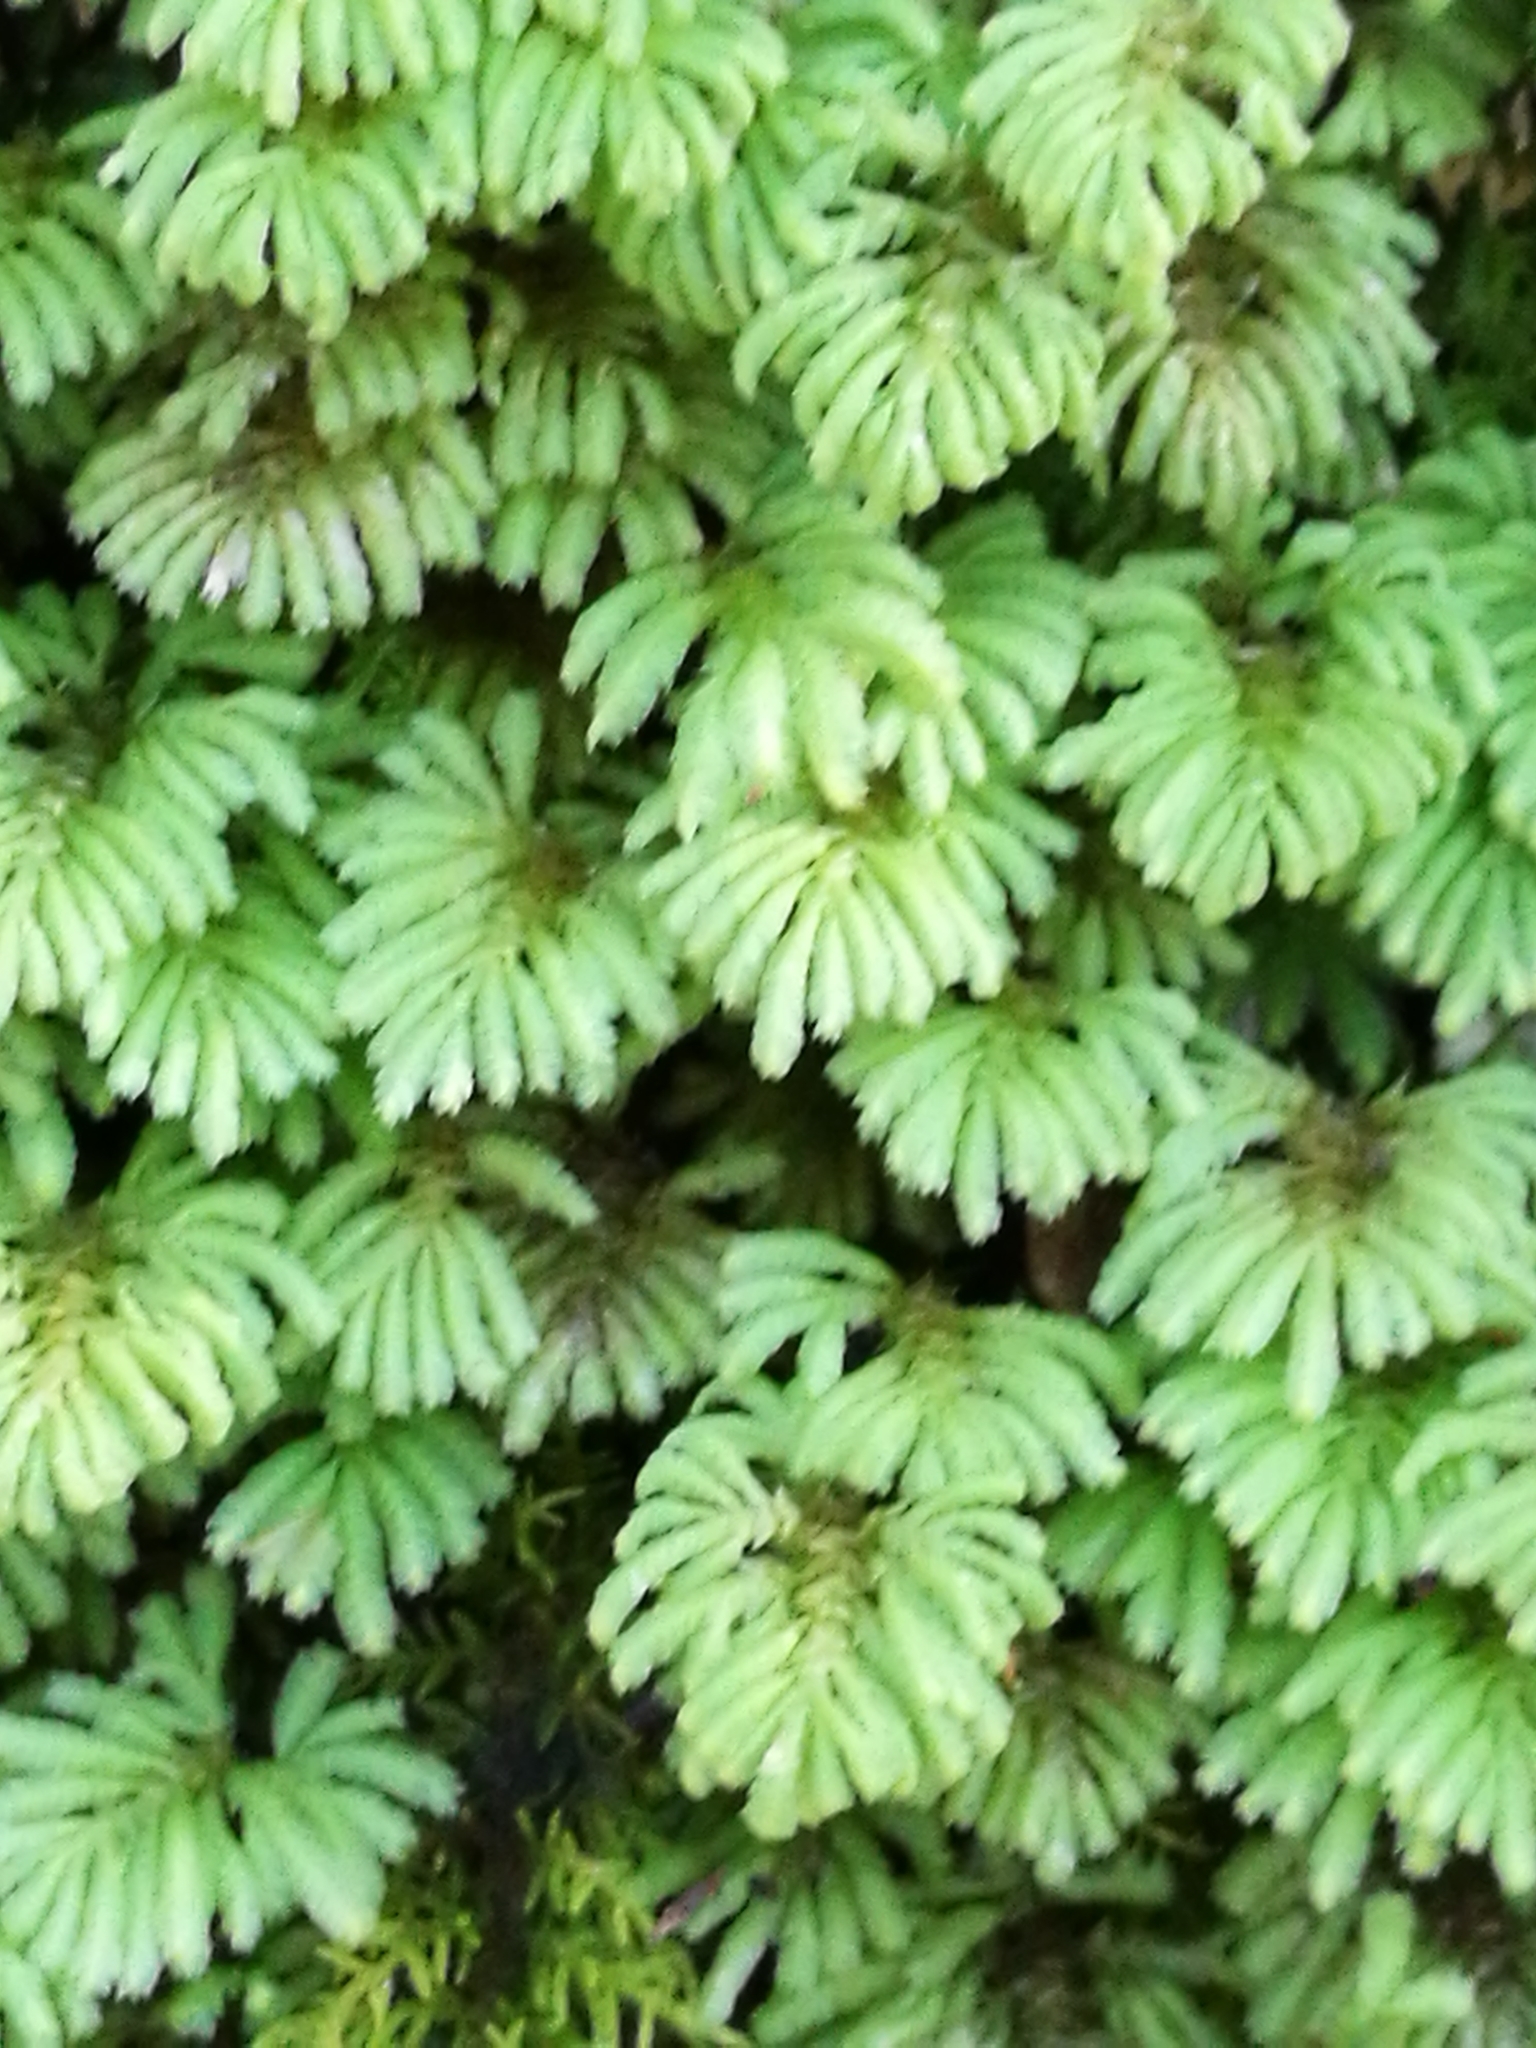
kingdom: Plantae
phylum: Bryophyta
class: Bryopsida
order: Hypopterygiales
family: Hypopterygiaceae
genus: Canalohypopterygium
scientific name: Canalohypopterygium tamariscinum
